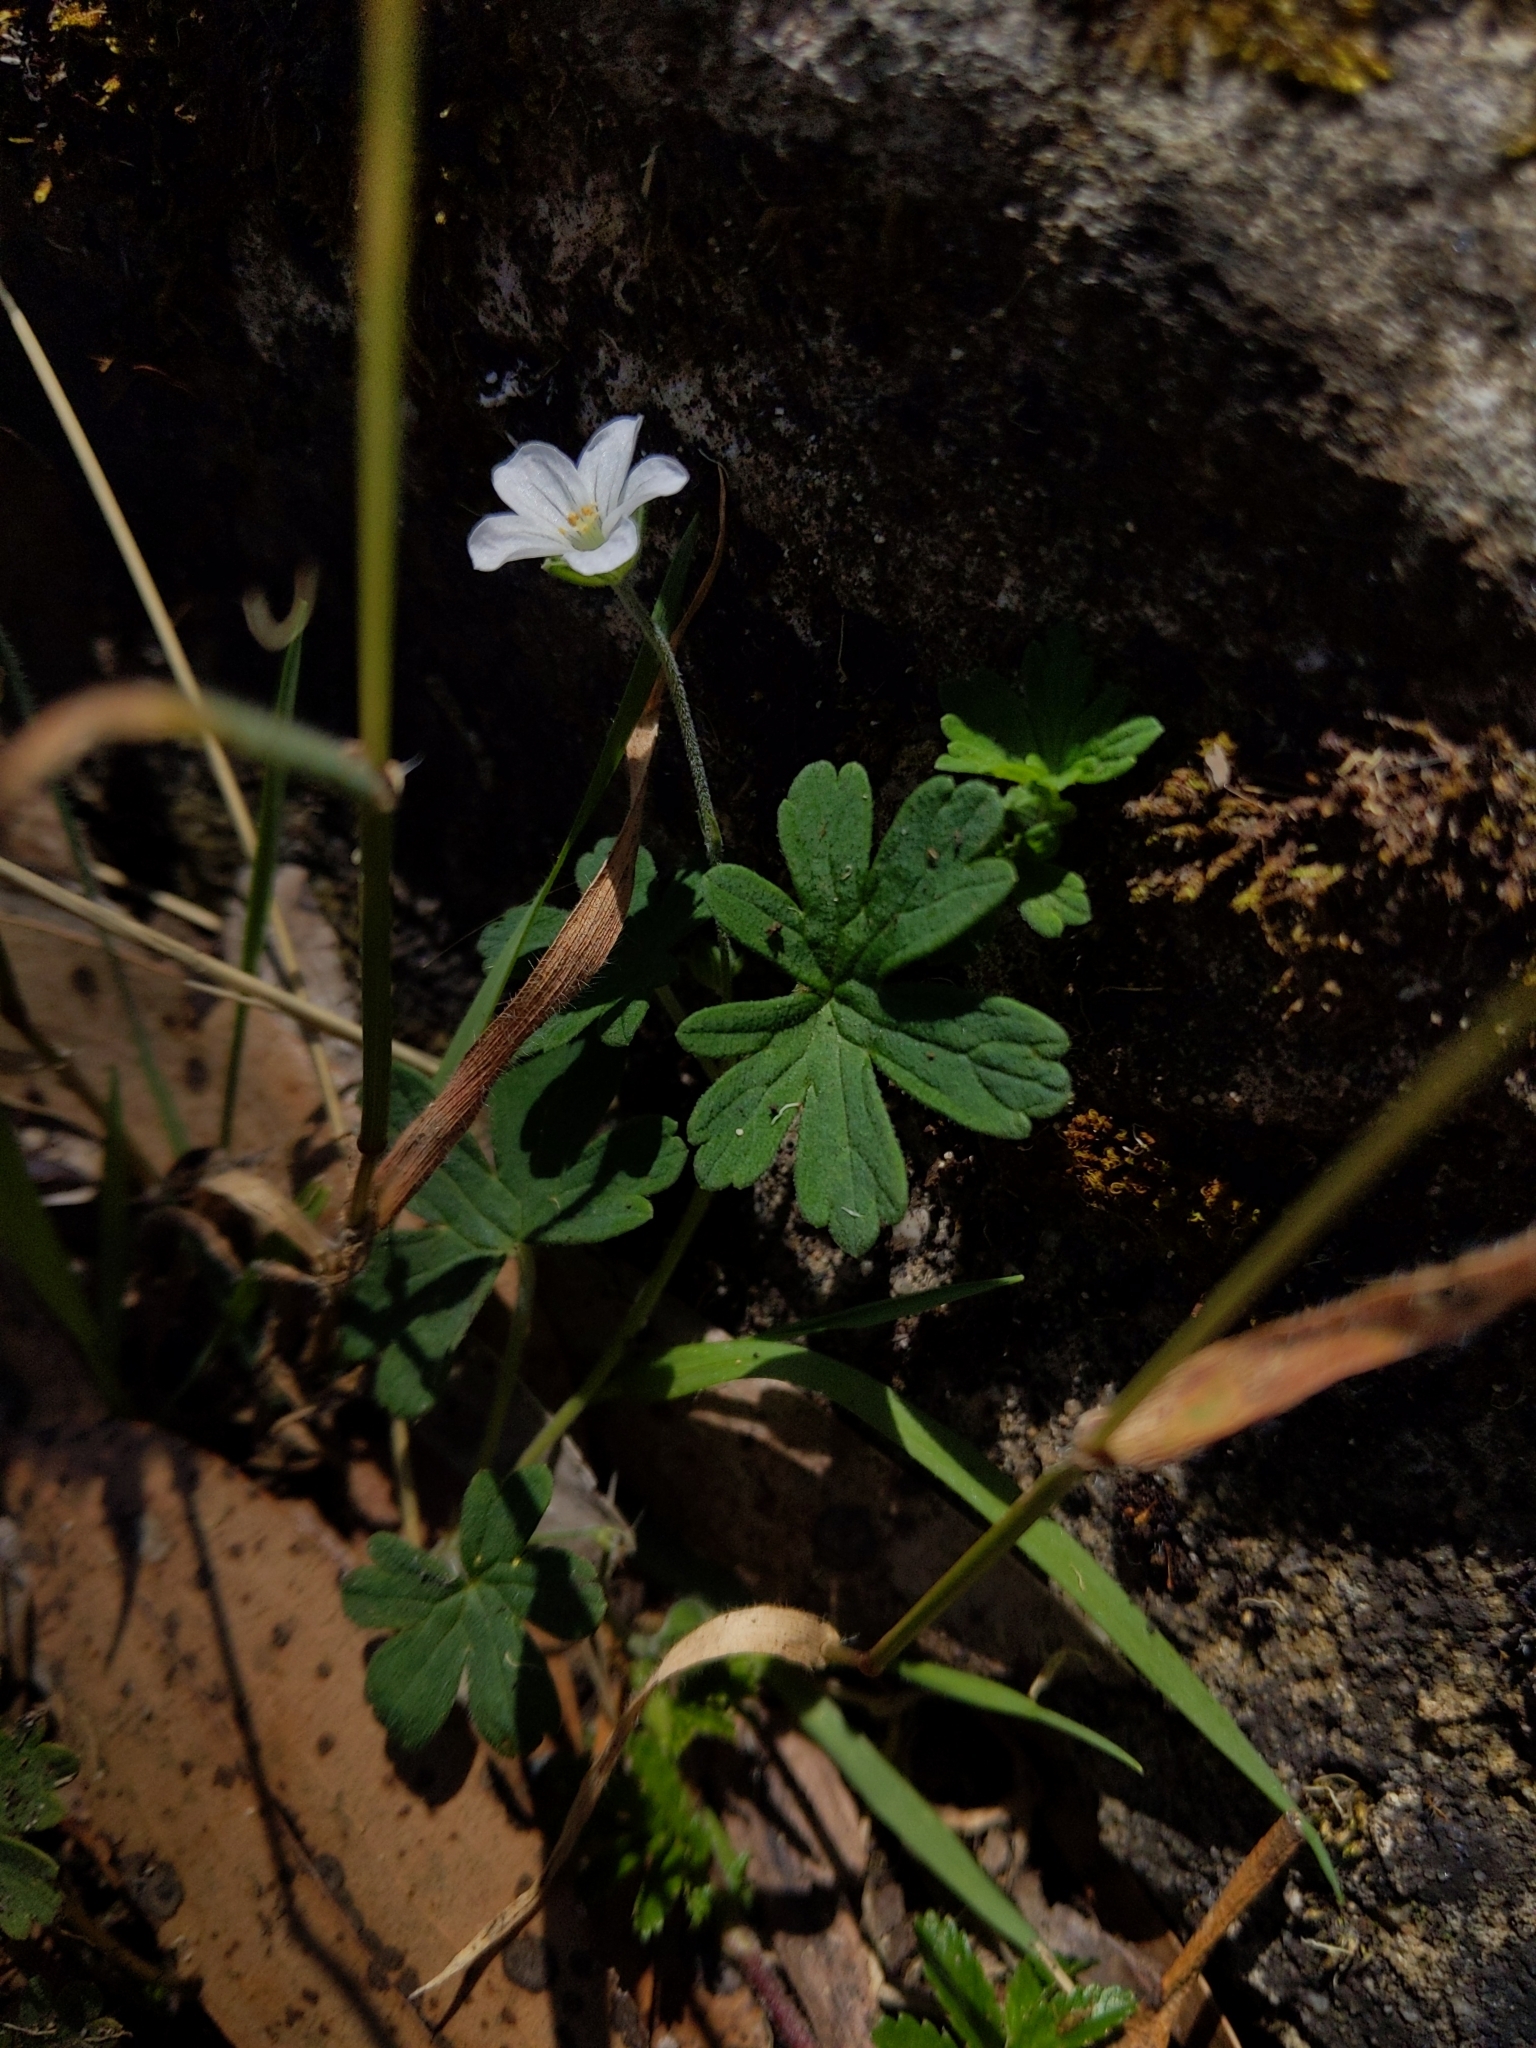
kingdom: Plantae
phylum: Tracheophyta
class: Magnoliopsida
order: Geraniales
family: Geraniaceae
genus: Geranium
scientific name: Geranium potentilloides
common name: Cinquefoil geranium
